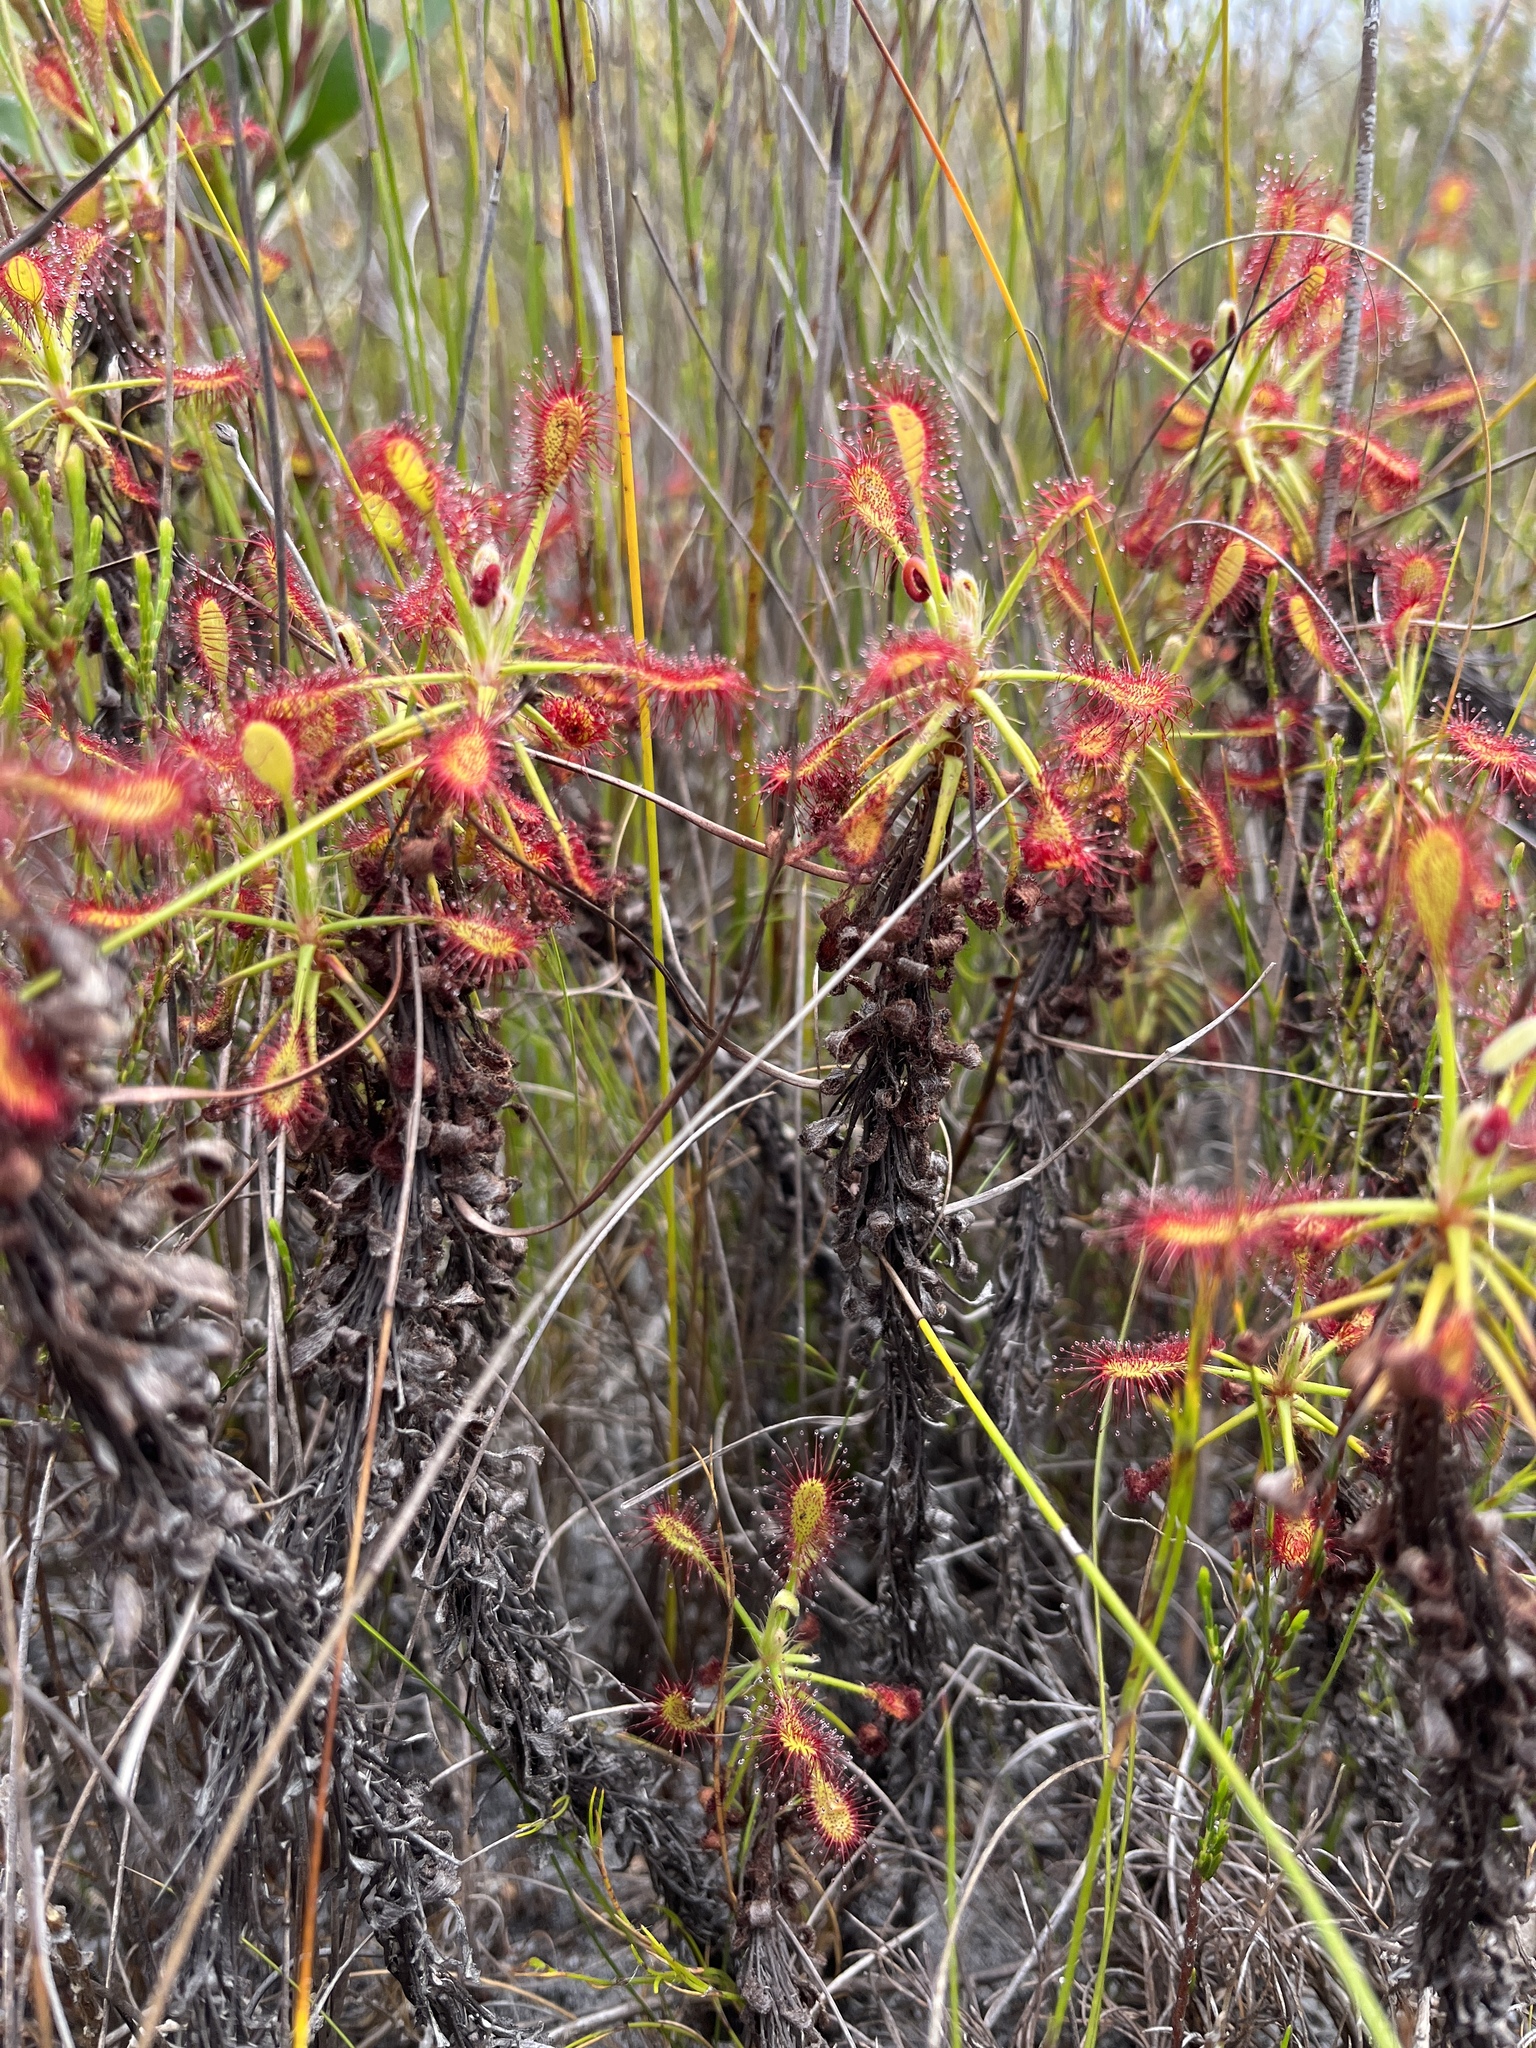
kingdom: Plantae
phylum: Tracheophyta
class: Magnoliopsida
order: Caryophyllales
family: Droseraceae
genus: Drosera
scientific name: Drosera glabripes
